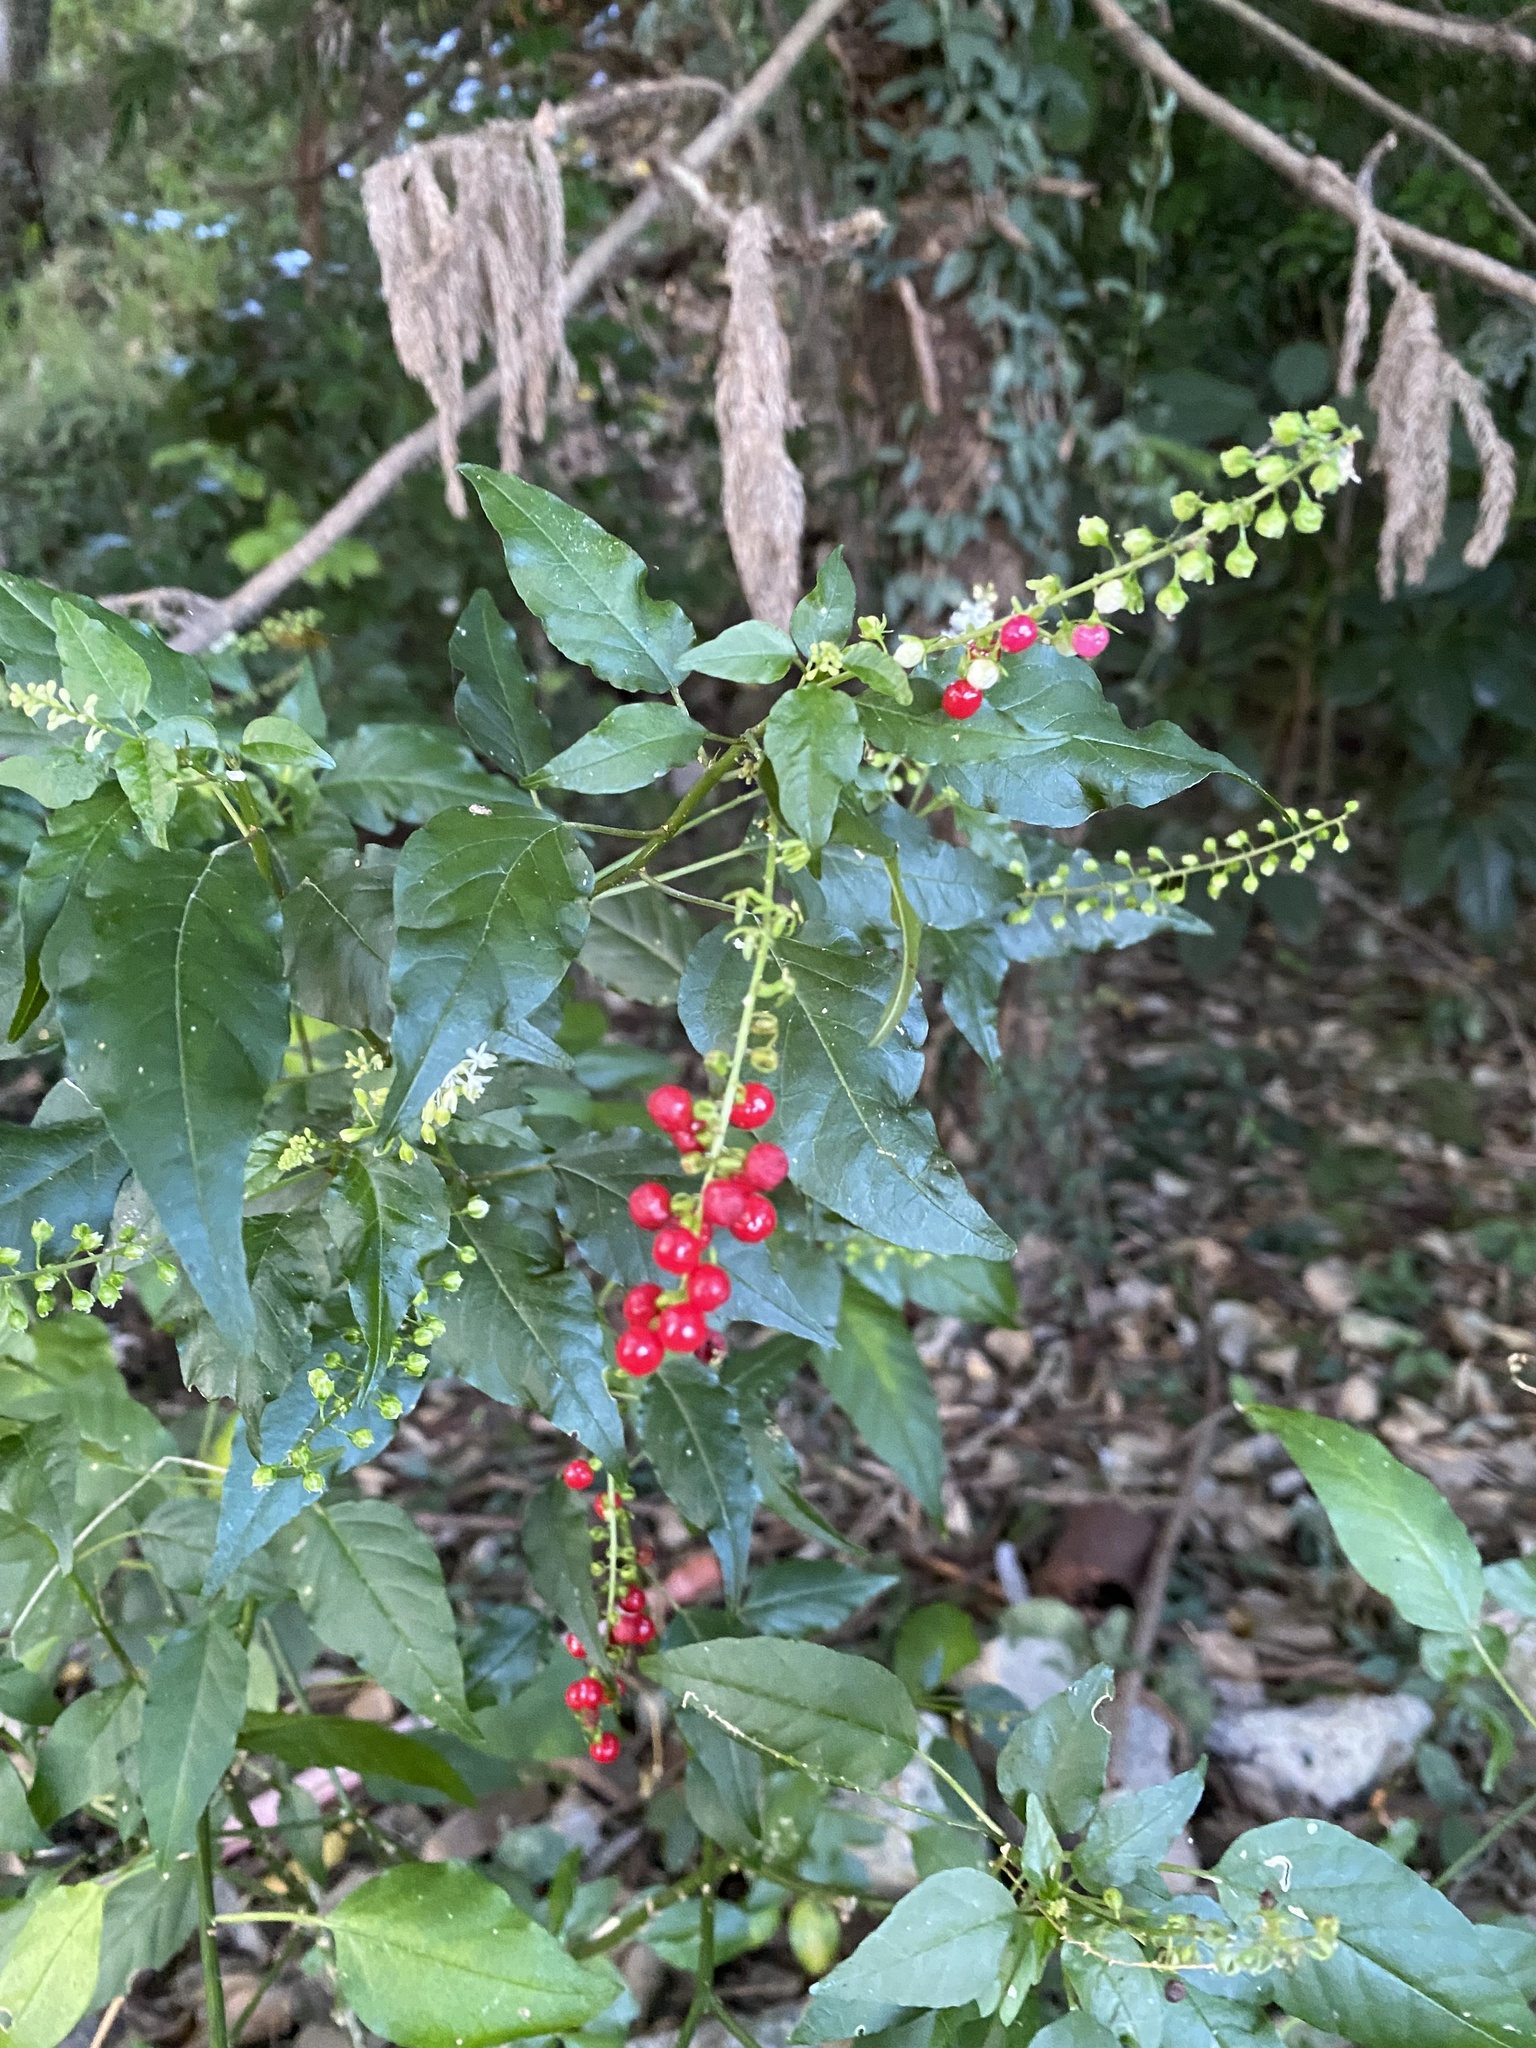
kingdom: Plantae
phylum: Tracheophyta
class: Magnoliopsida
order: Caryophyllales
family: Phytolaccaceae
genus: Rivina
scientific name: Rivina humilis
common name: Rougeplant
